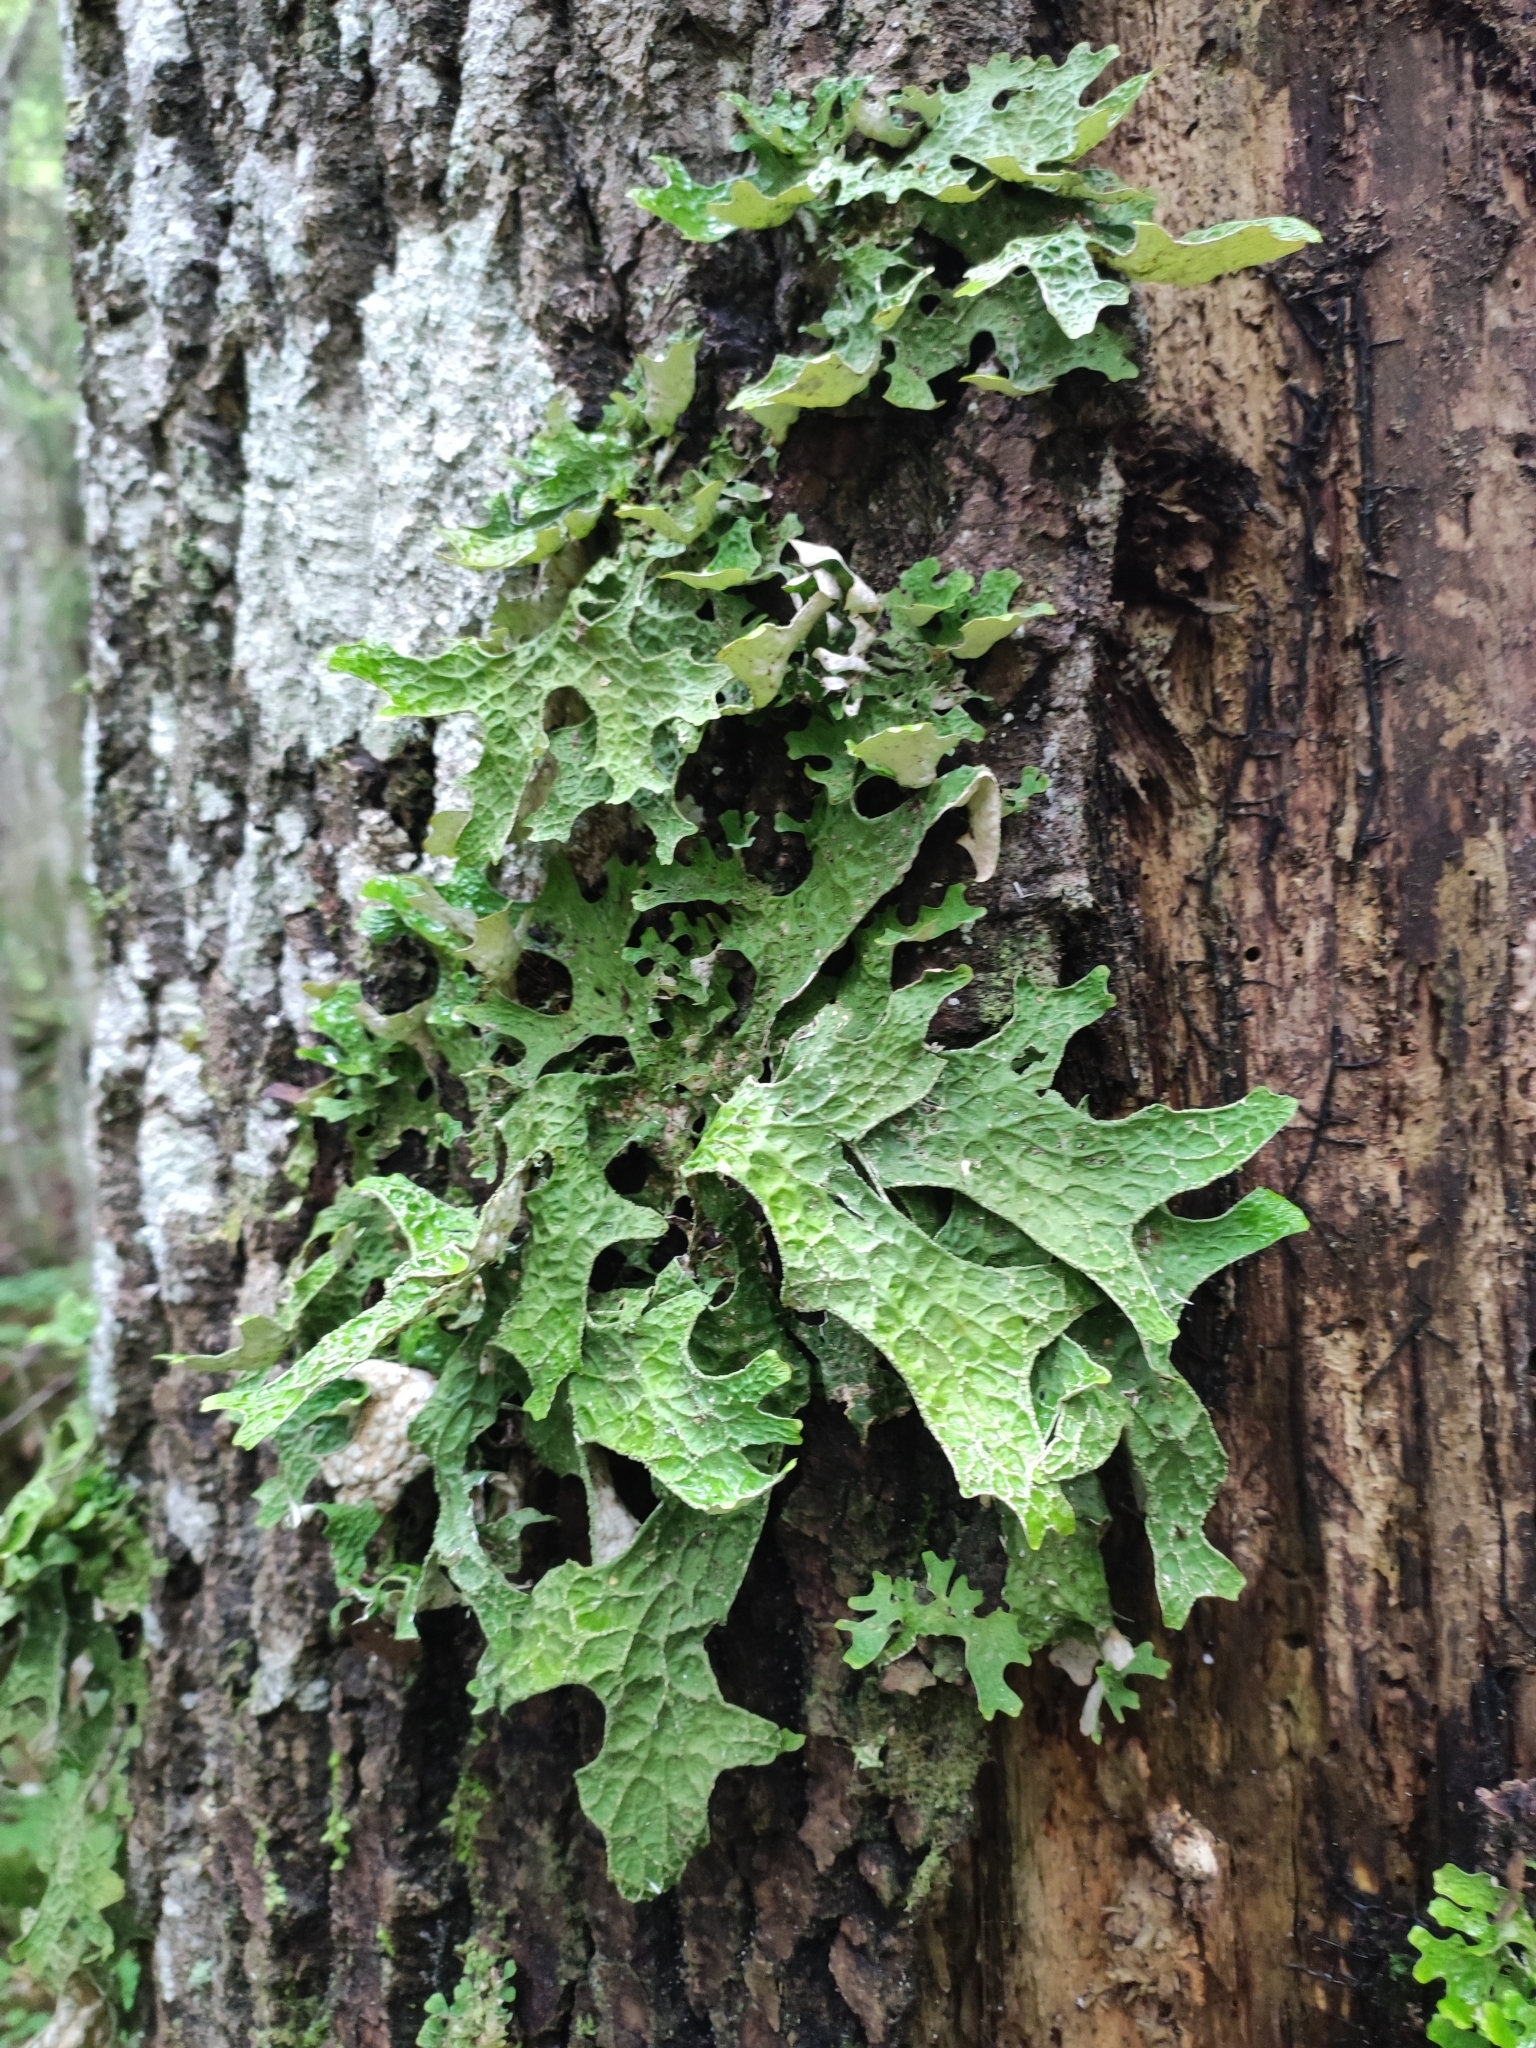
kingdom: Fungi
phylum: Ascomycota
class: Lecanoromycetes
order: Peltigerales
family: Lobariaceae
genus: Lobaria
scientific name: Lobaria pulmonaria
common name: Lungwort
